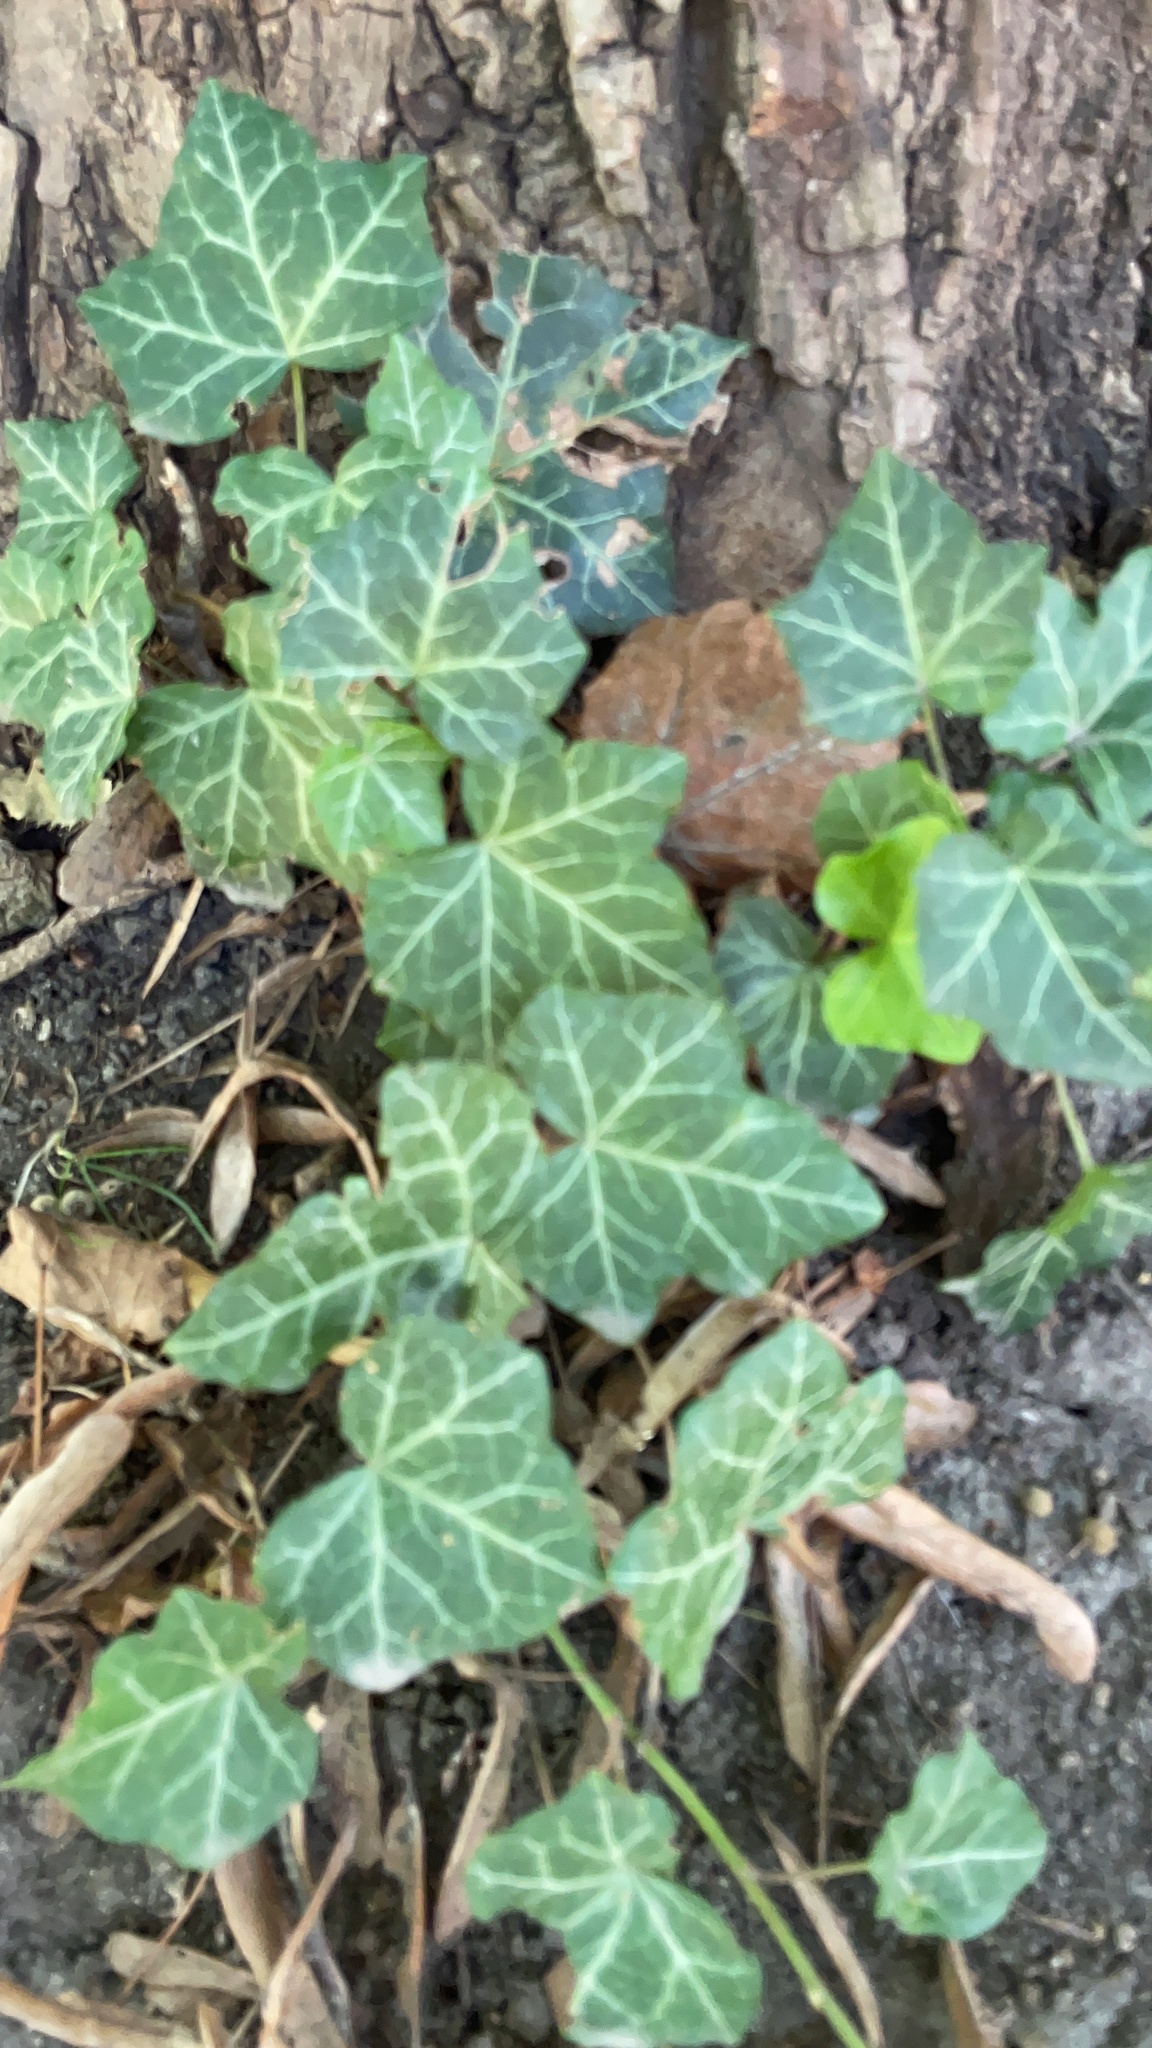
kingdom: Plantae
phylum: Tracheophyta
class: Magnoliopsida
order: Apiales
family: Araliaceae
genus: Hedera
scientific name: Hedera helix
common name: Ivy
